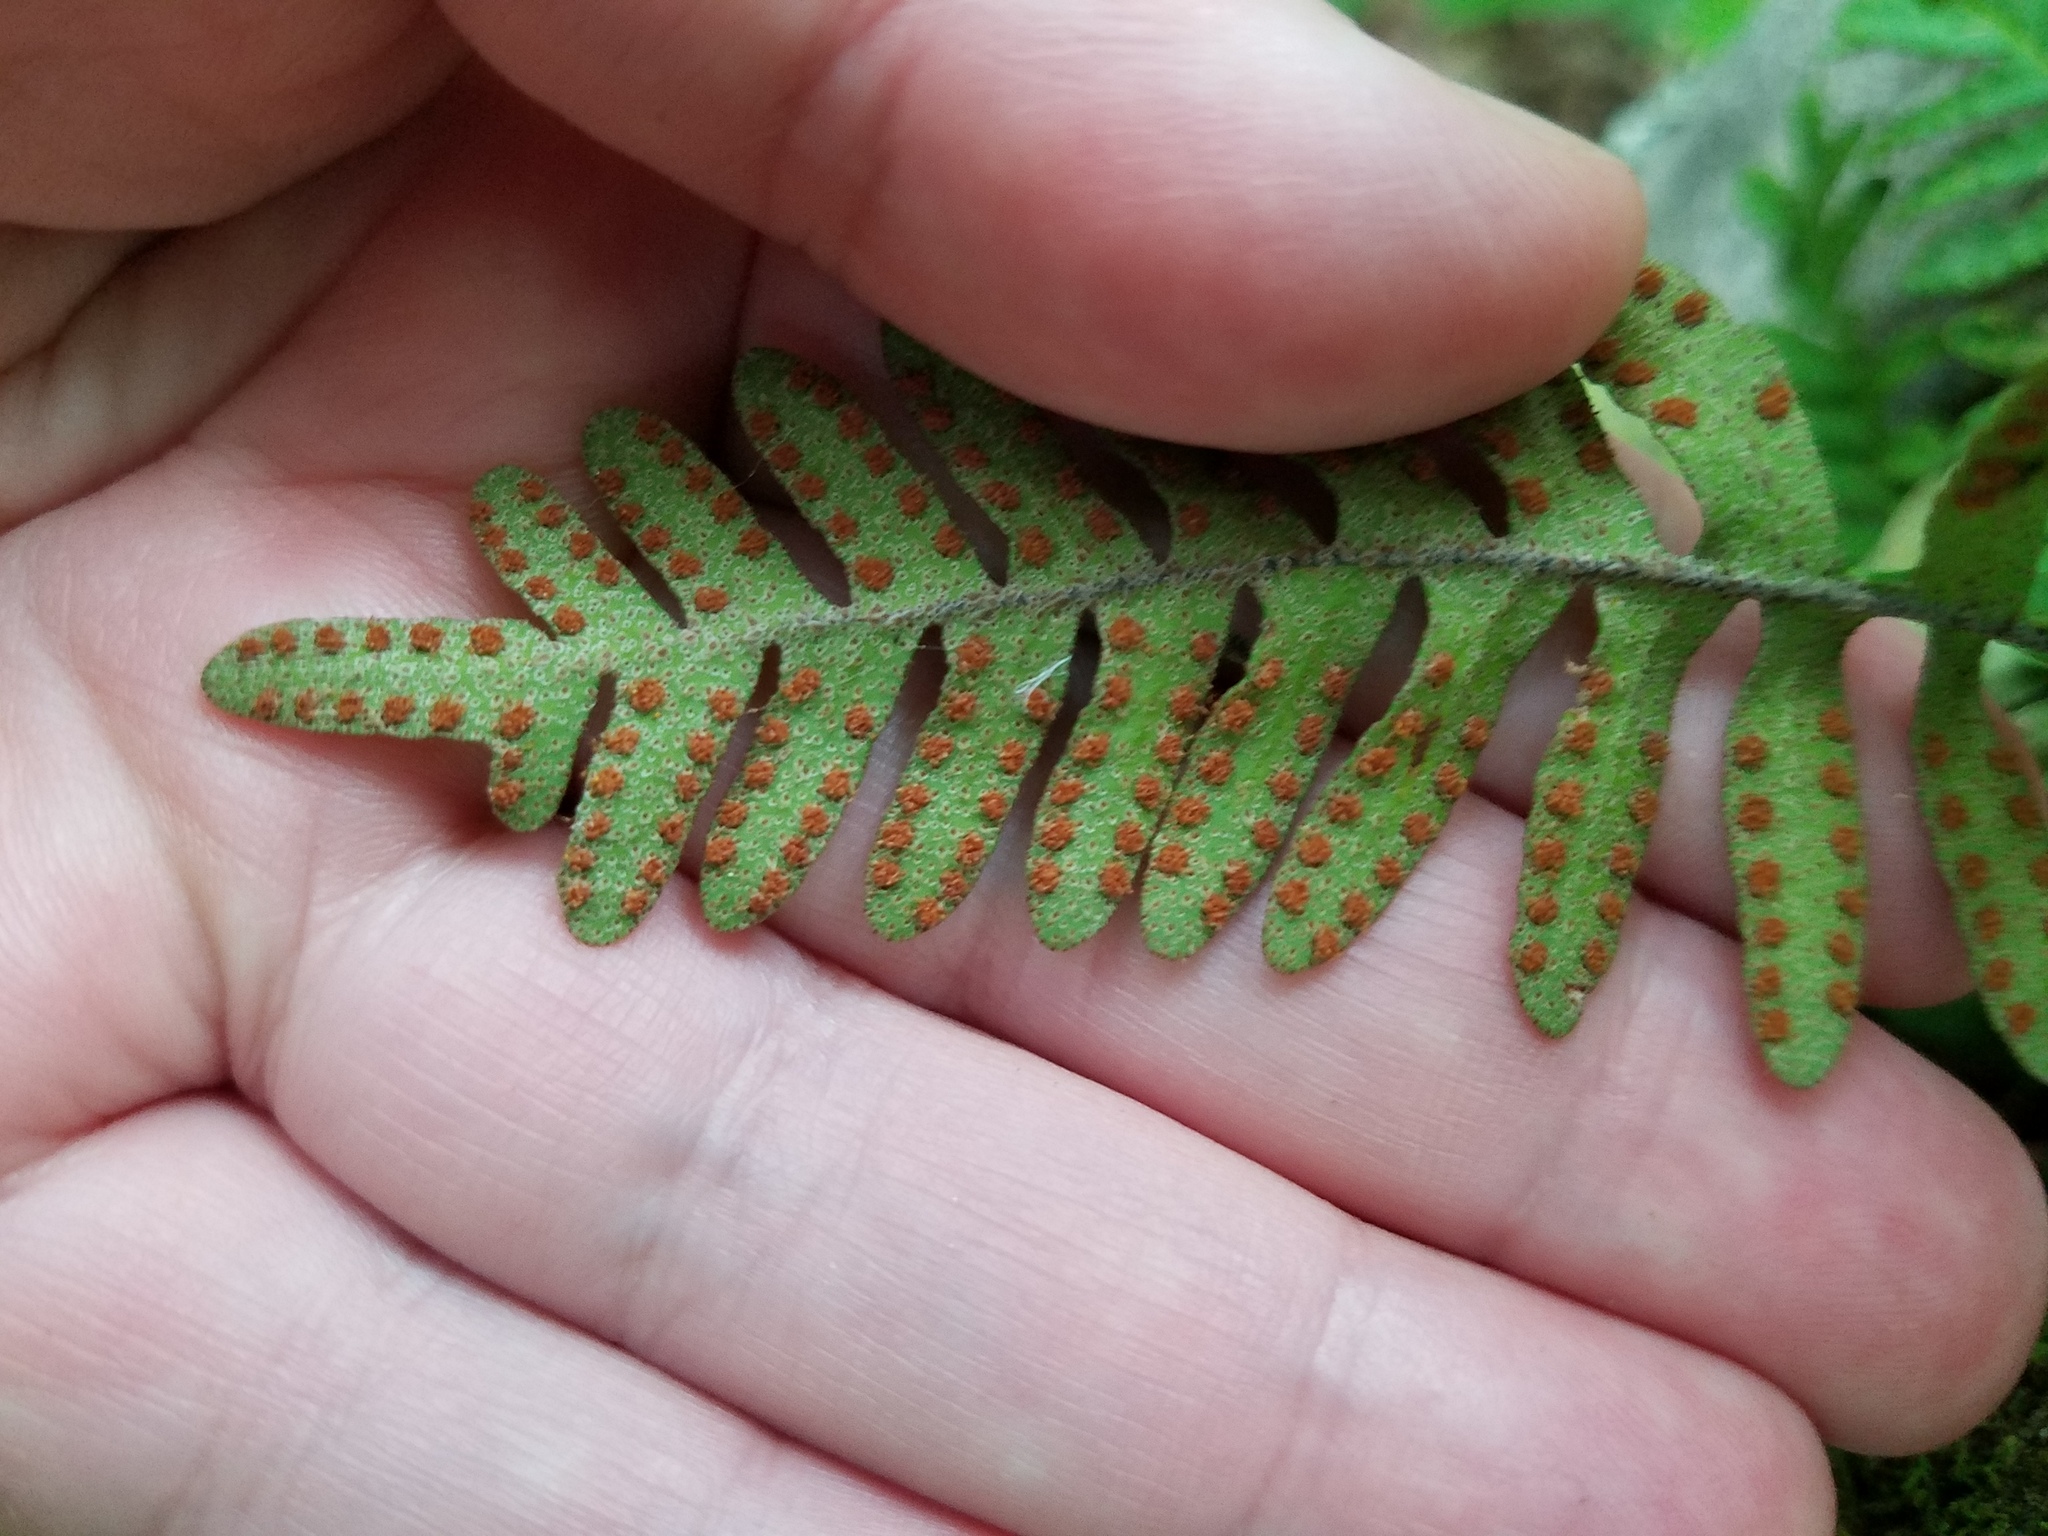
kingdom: Plantae
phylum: Tracheophyta
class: Polypodiopsida
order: Polypodiales
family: Polypodiaceae
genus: Pleopeltis
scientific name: Pleopeltis michauxiana
